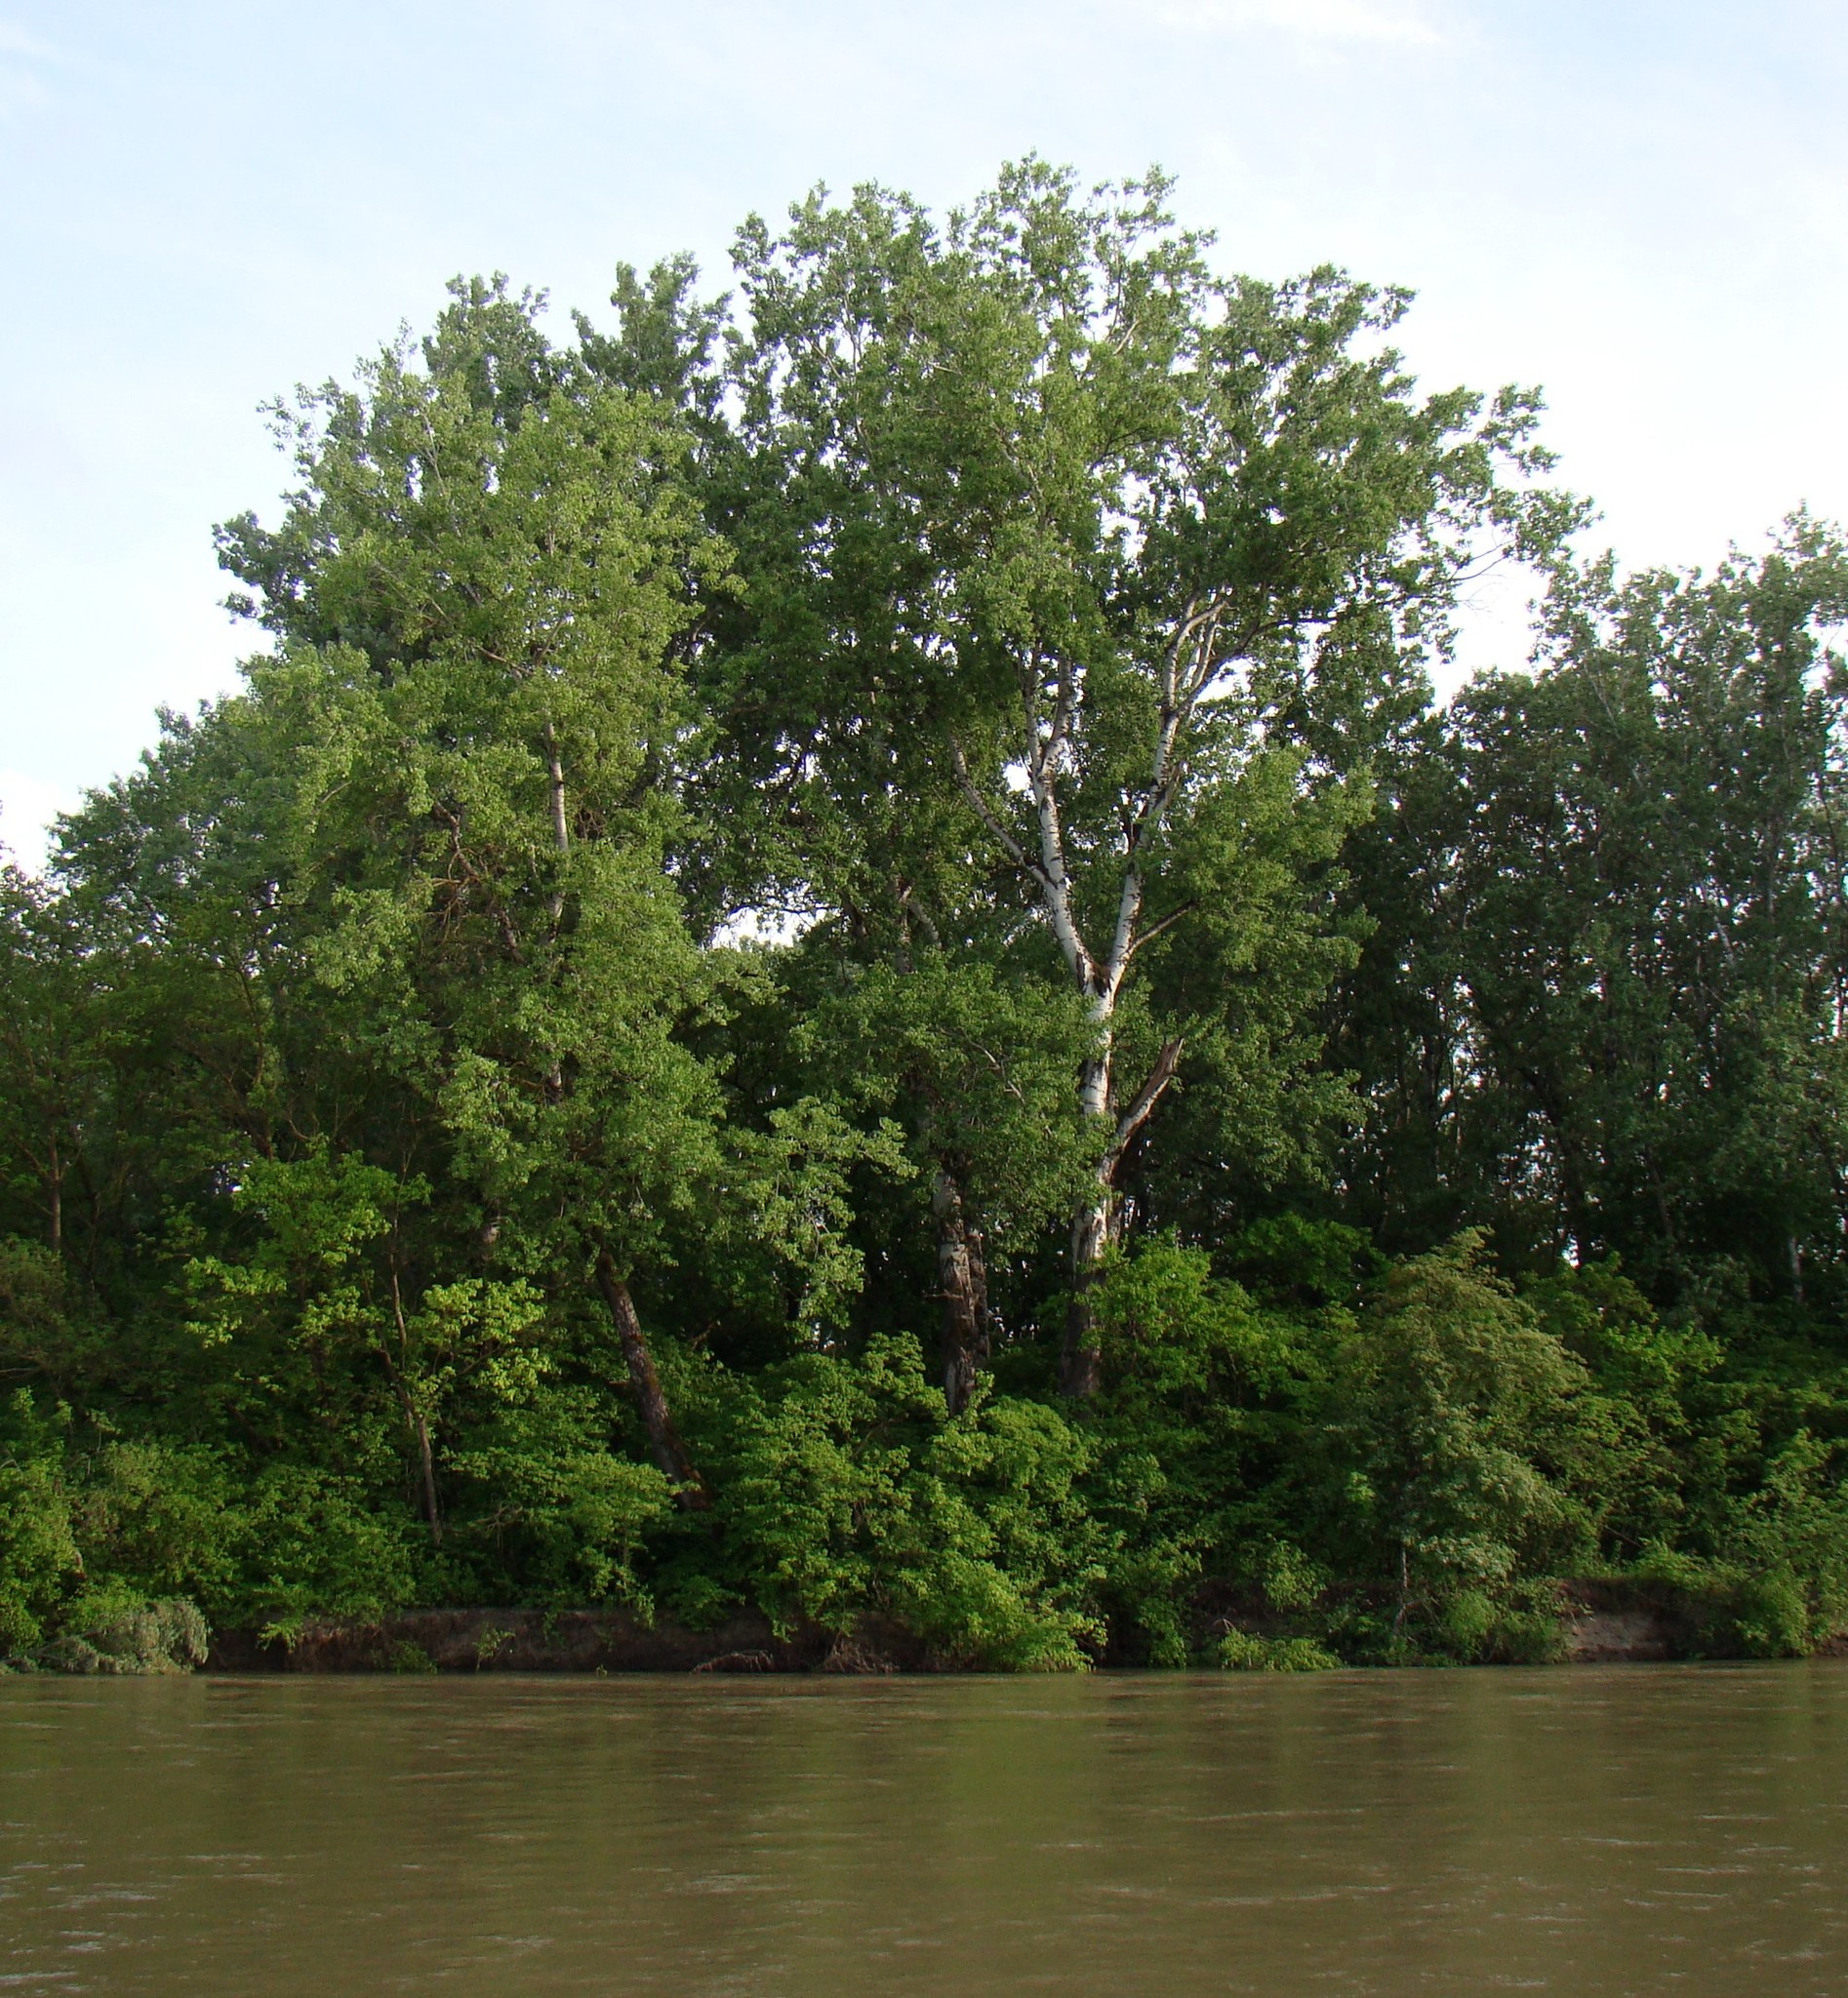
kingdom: Plantae
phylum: Tracheophyta
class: Magnoliopsida
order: Malpighiales
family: Salicaceae
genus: Populus
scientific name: Populus alba
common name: White poplar
